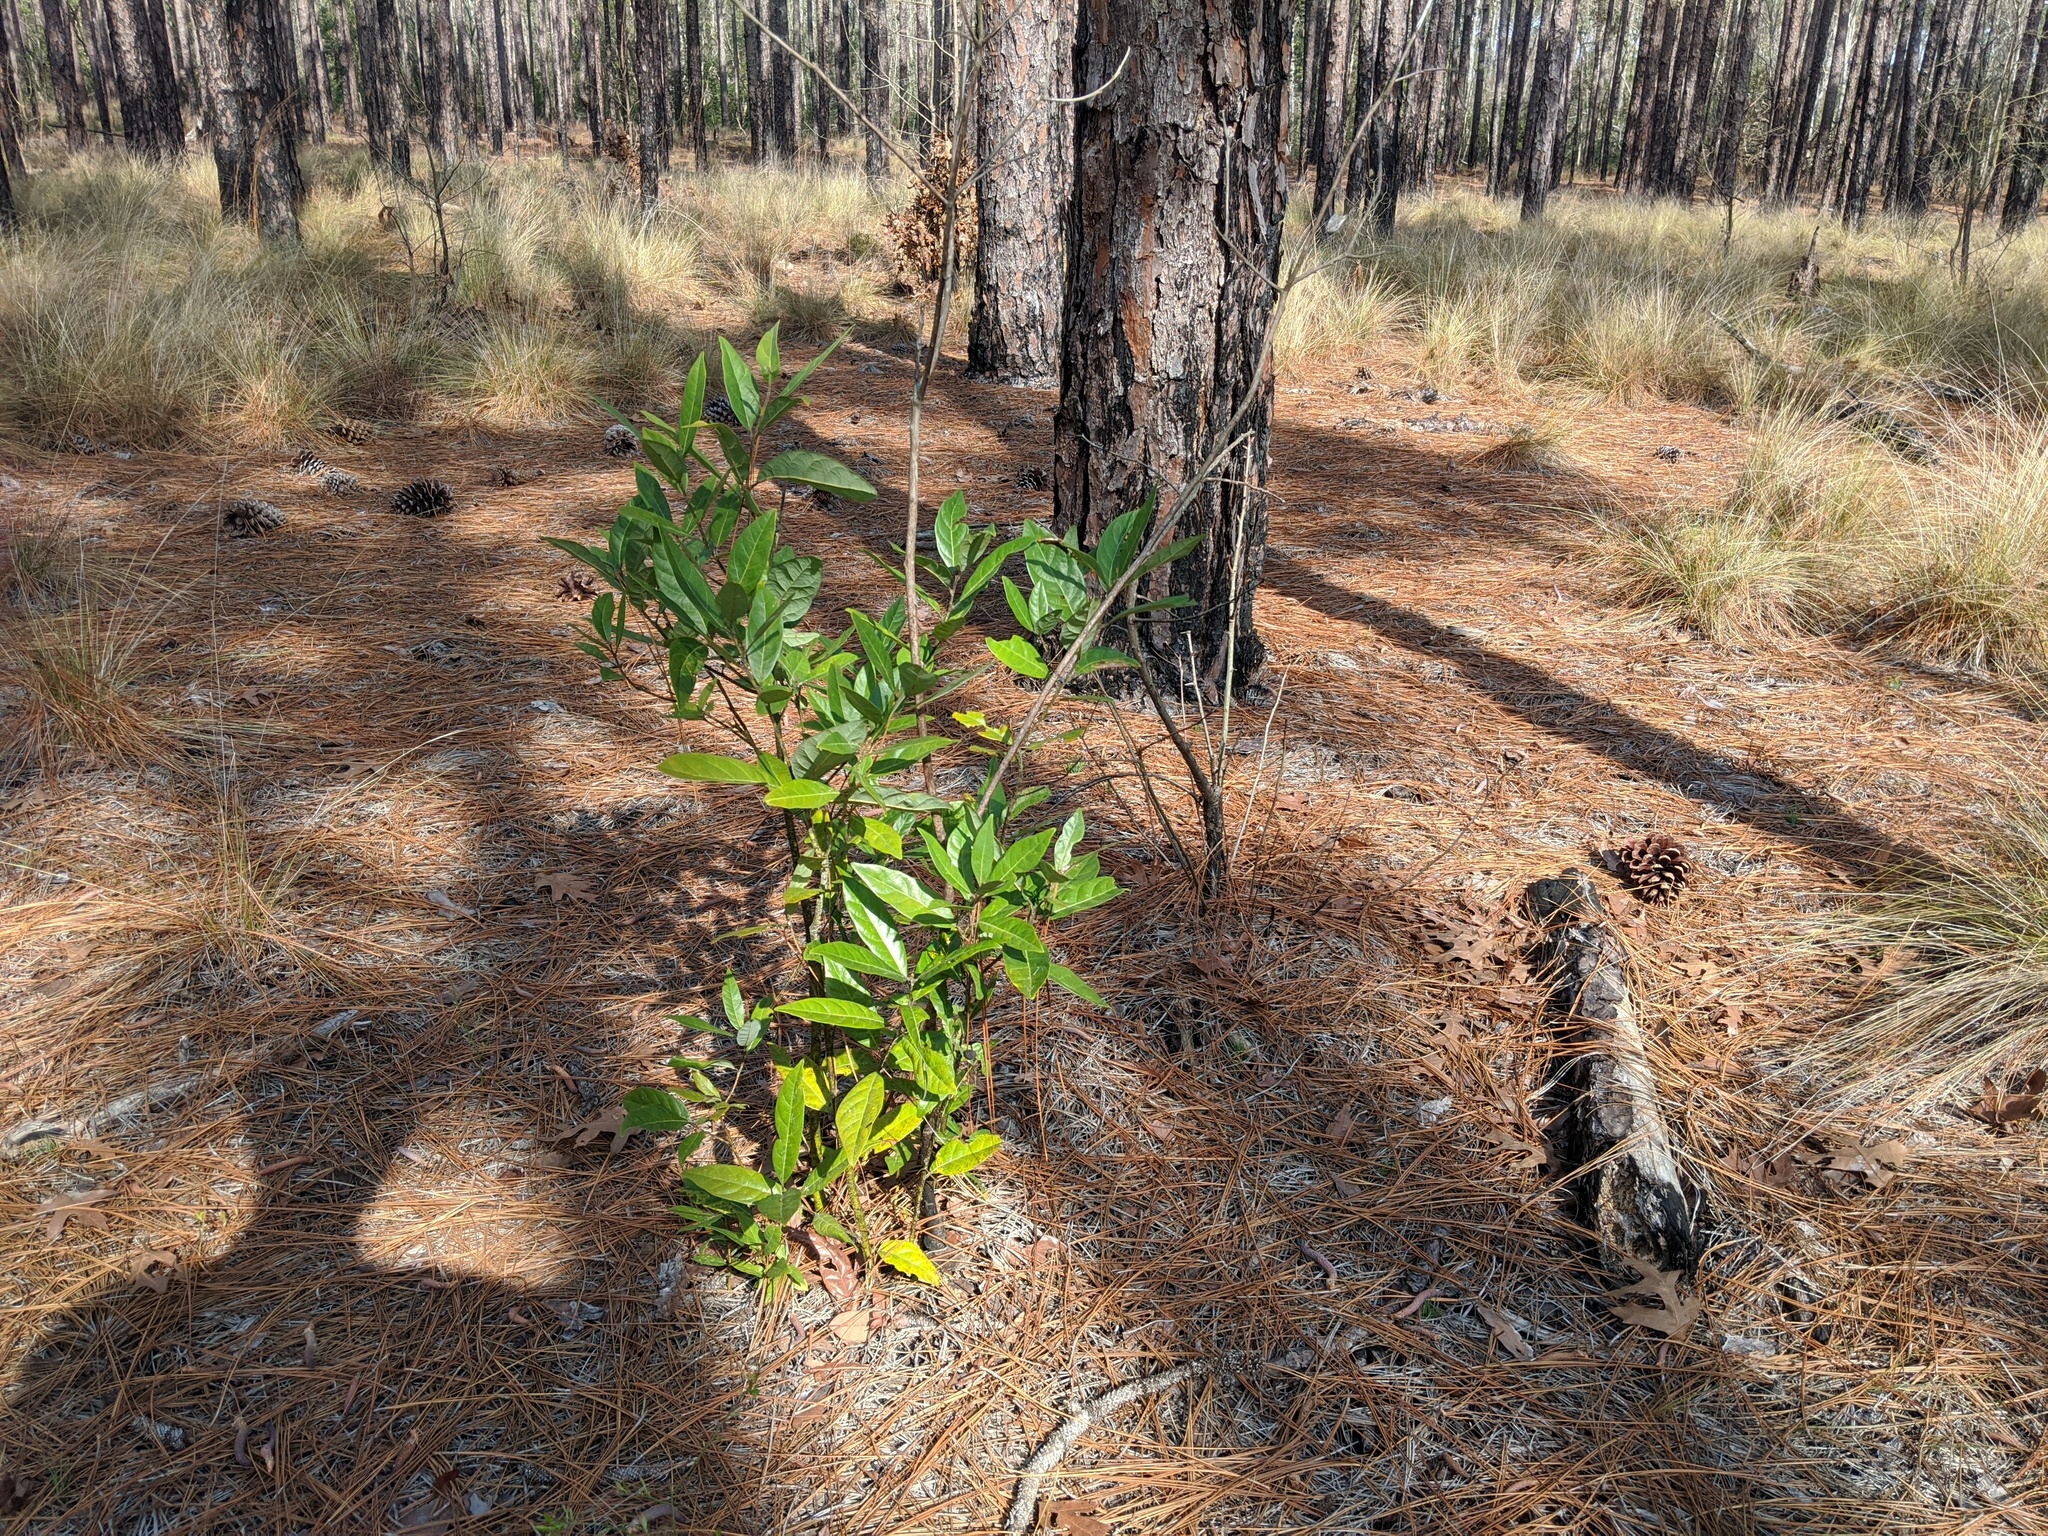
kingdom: Plantae
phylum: Tracheophyta
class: Magnoliopsida
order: Laurales
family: Lauraceae
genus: Persea
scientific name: Persea palustris
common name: Swampbay
